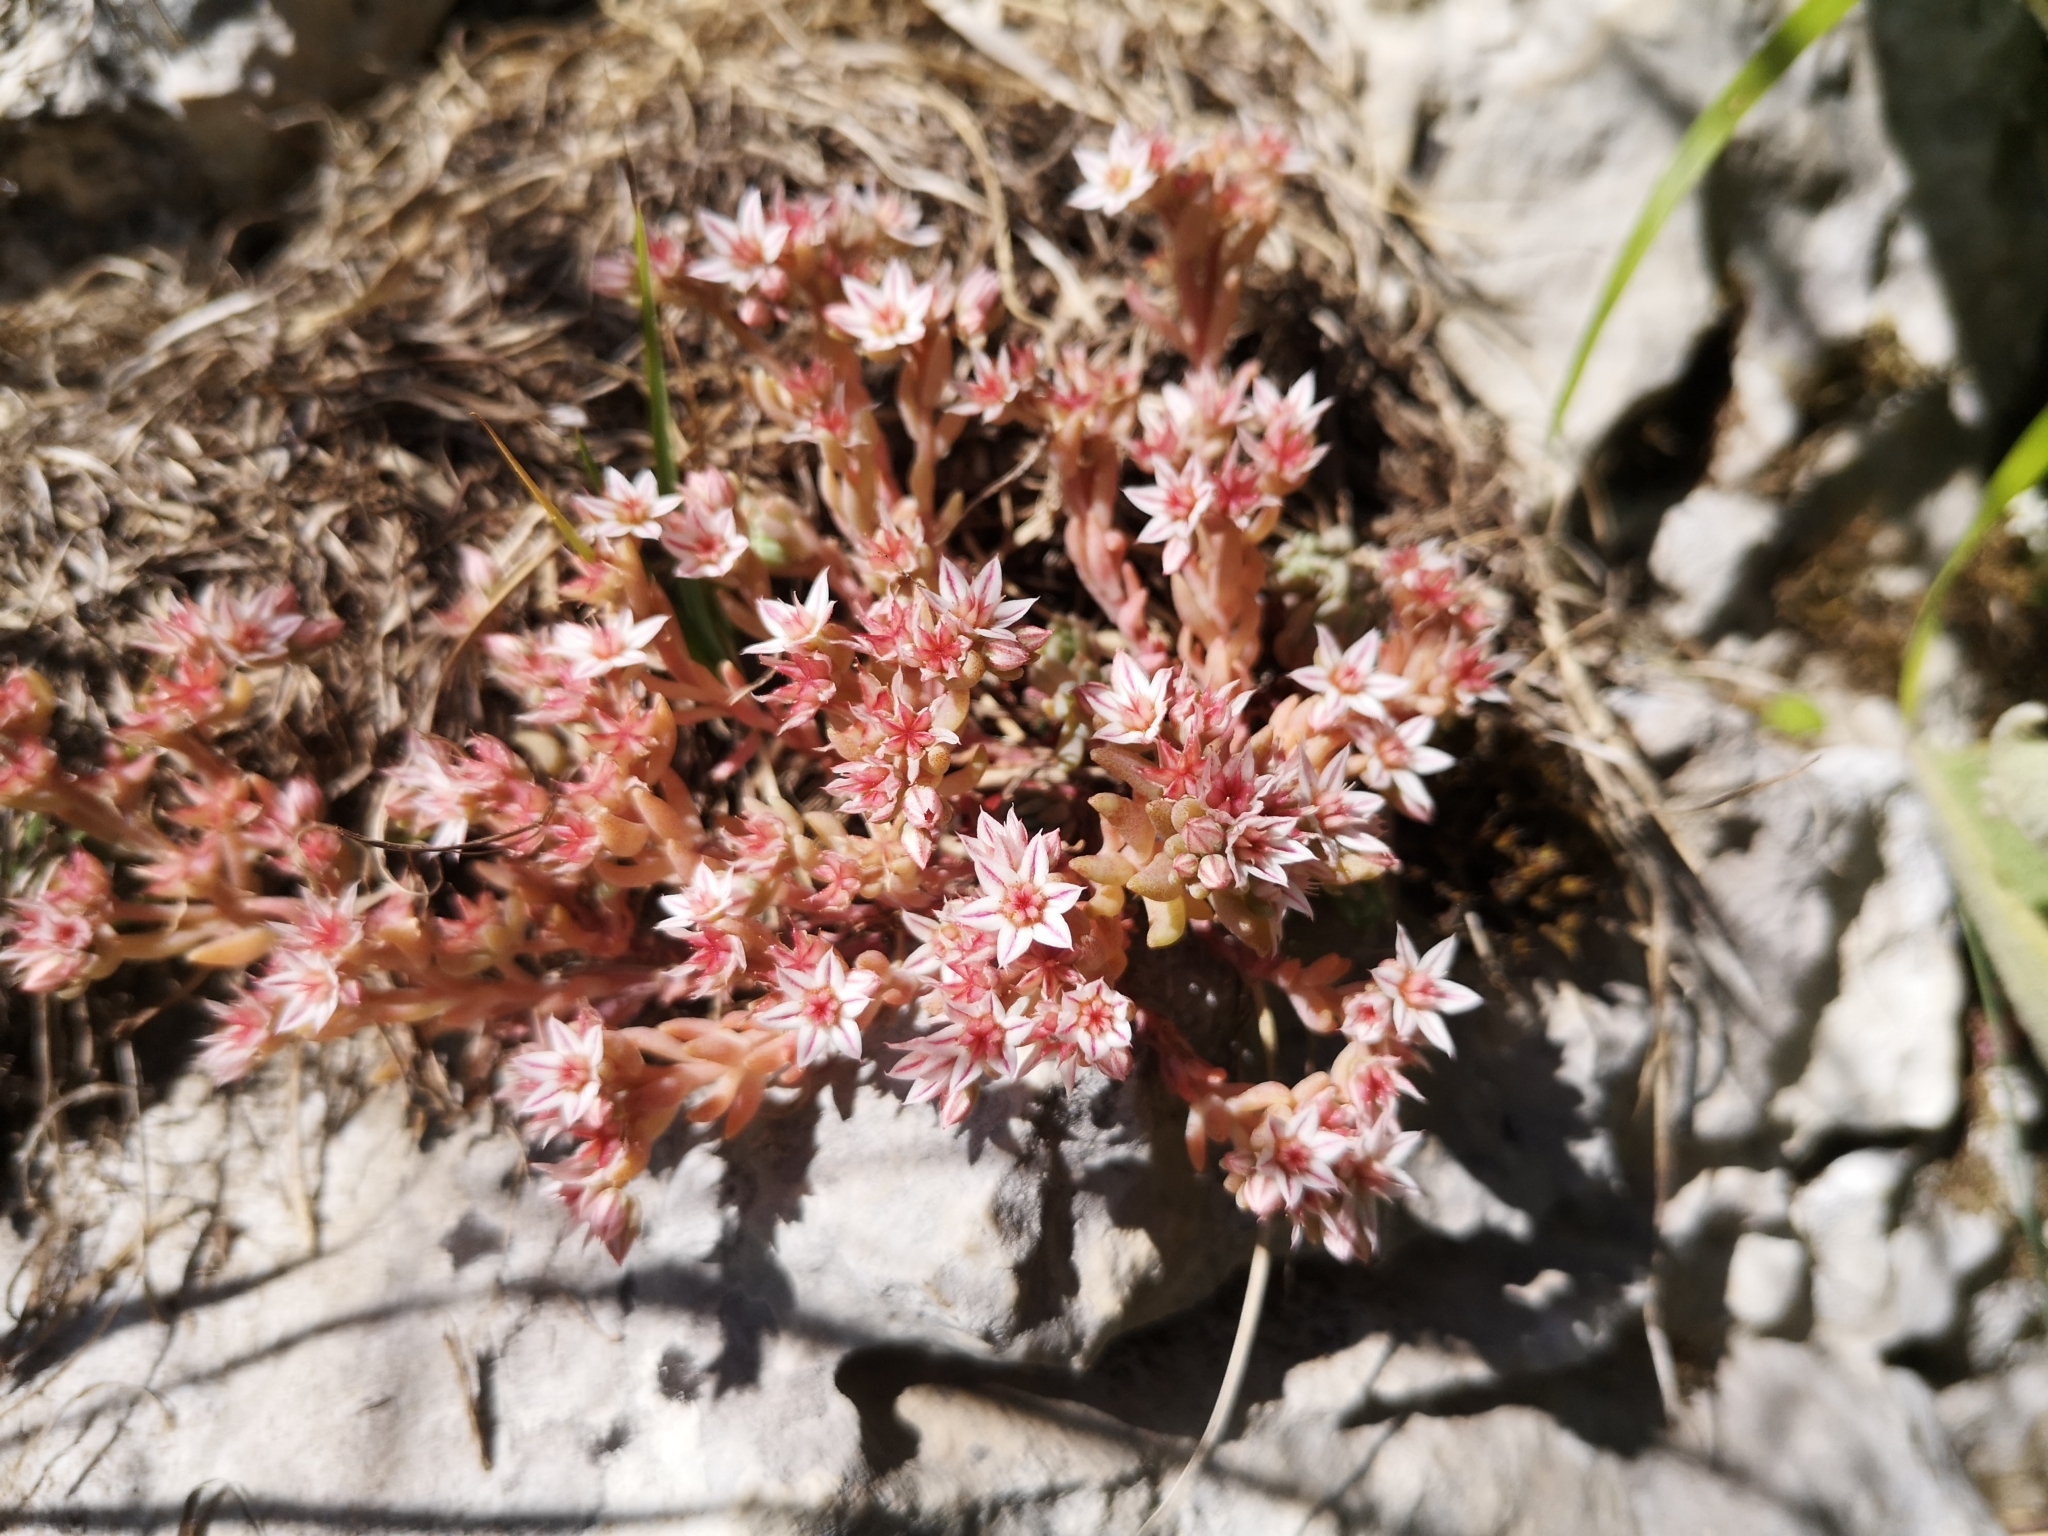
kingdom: Plantae
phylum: Tracheophyta
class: Magnoliopsida
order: Saxifragales
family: Crassulaceae
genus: Sedum
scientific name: Sedum hispanicum
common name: Spanish stonecrop
